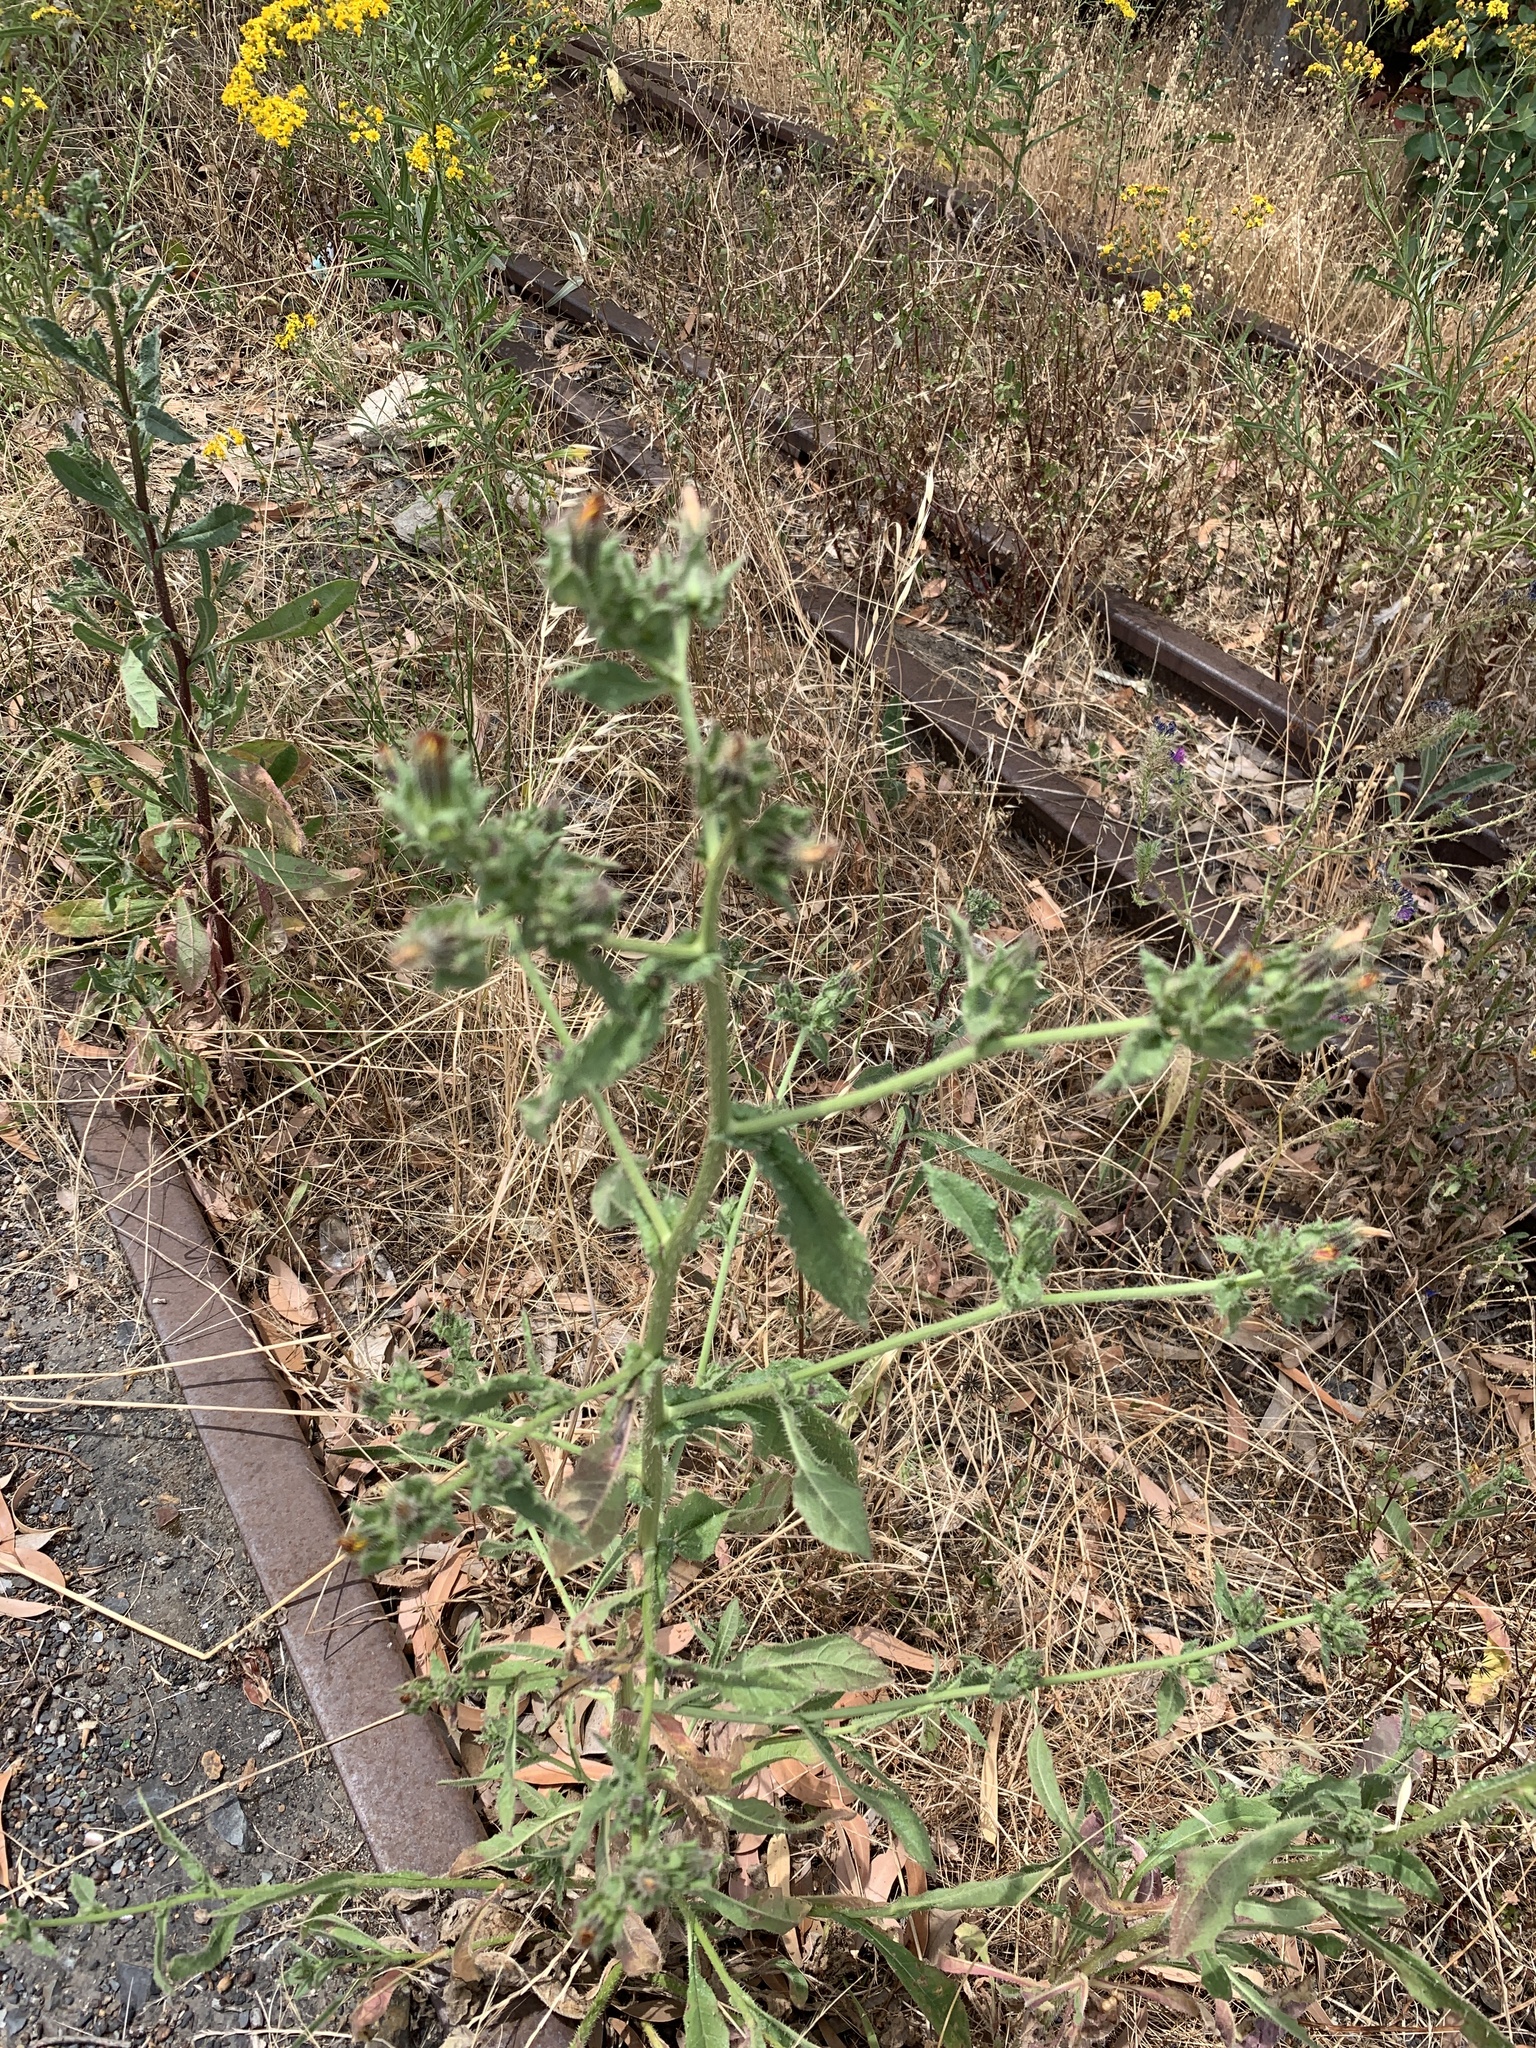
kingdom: Plantae
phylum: Tracheophyta
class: Magnoliopsida
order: Asterales
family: Asteraceae
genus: Helminthotheca
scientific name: Helminthotheca echioides
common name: Ox-tongue
